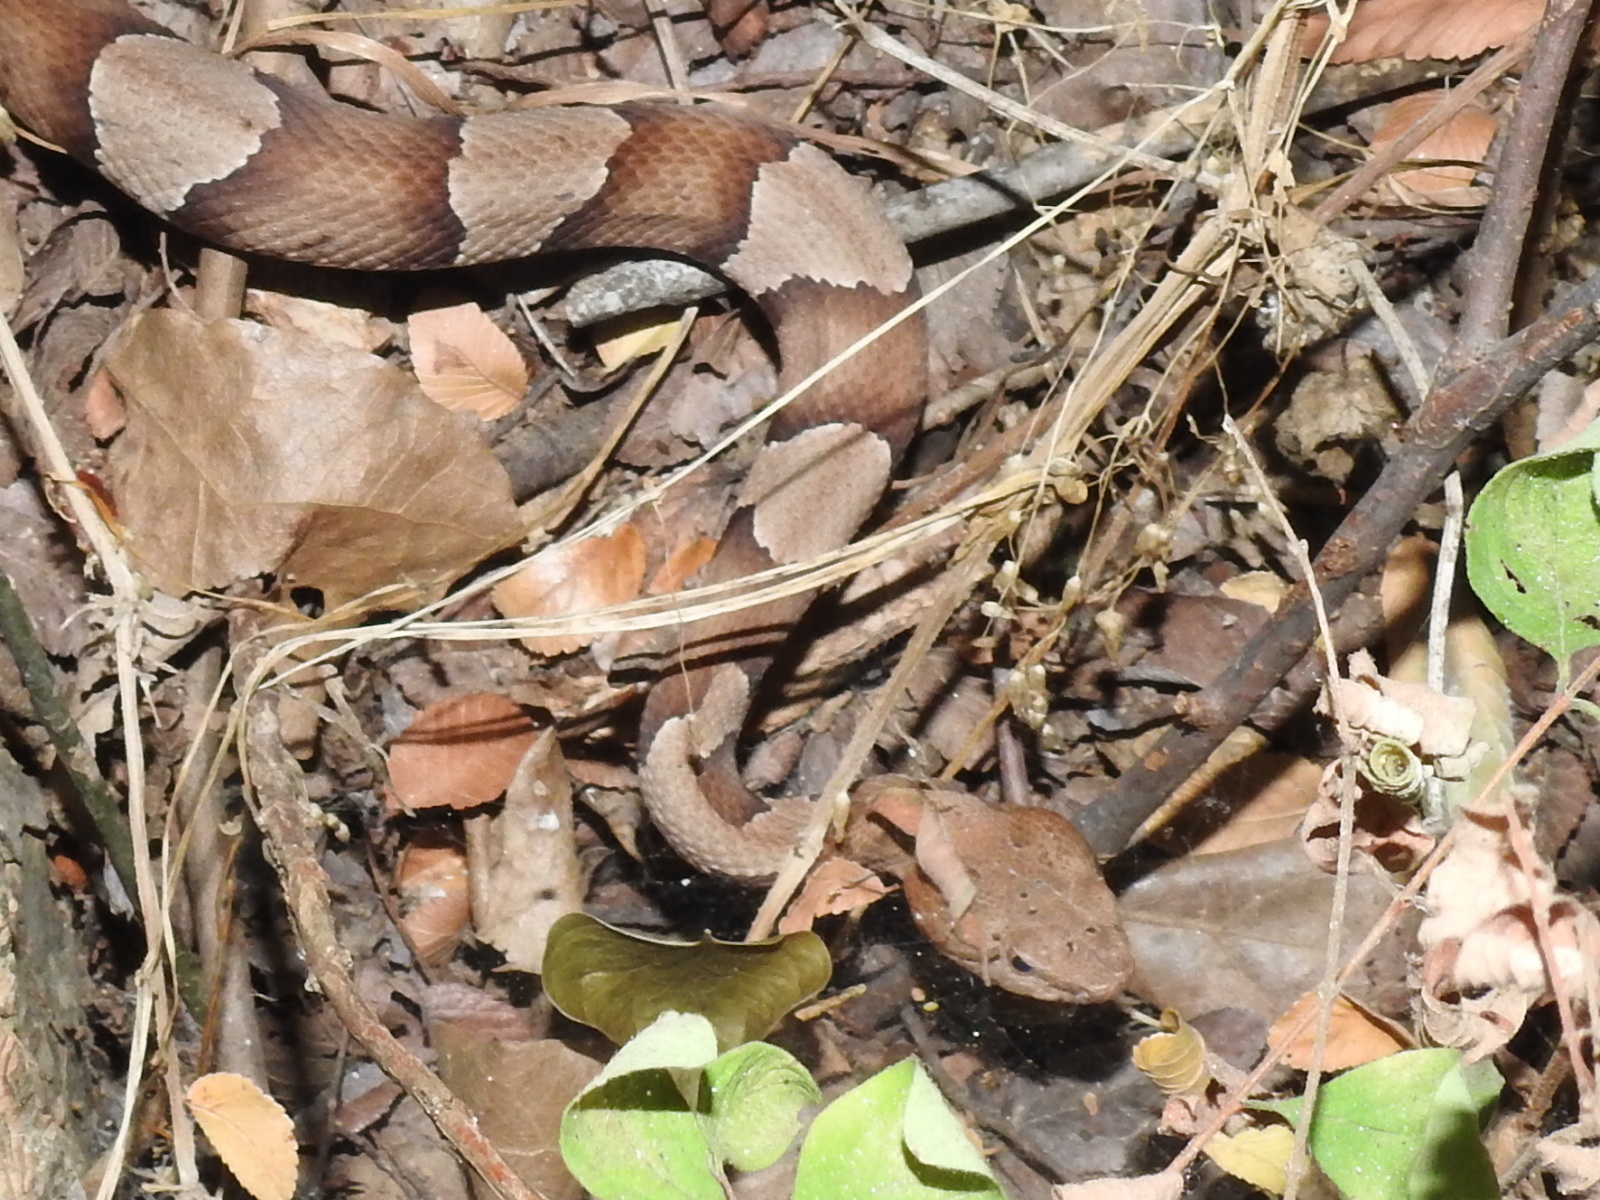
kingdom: Animalia
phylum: Chordata
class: Squamata
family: Viperidae
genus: Agkistrodon
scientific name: Agkistrodon laticinctus
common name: Broad-banded copperhead
